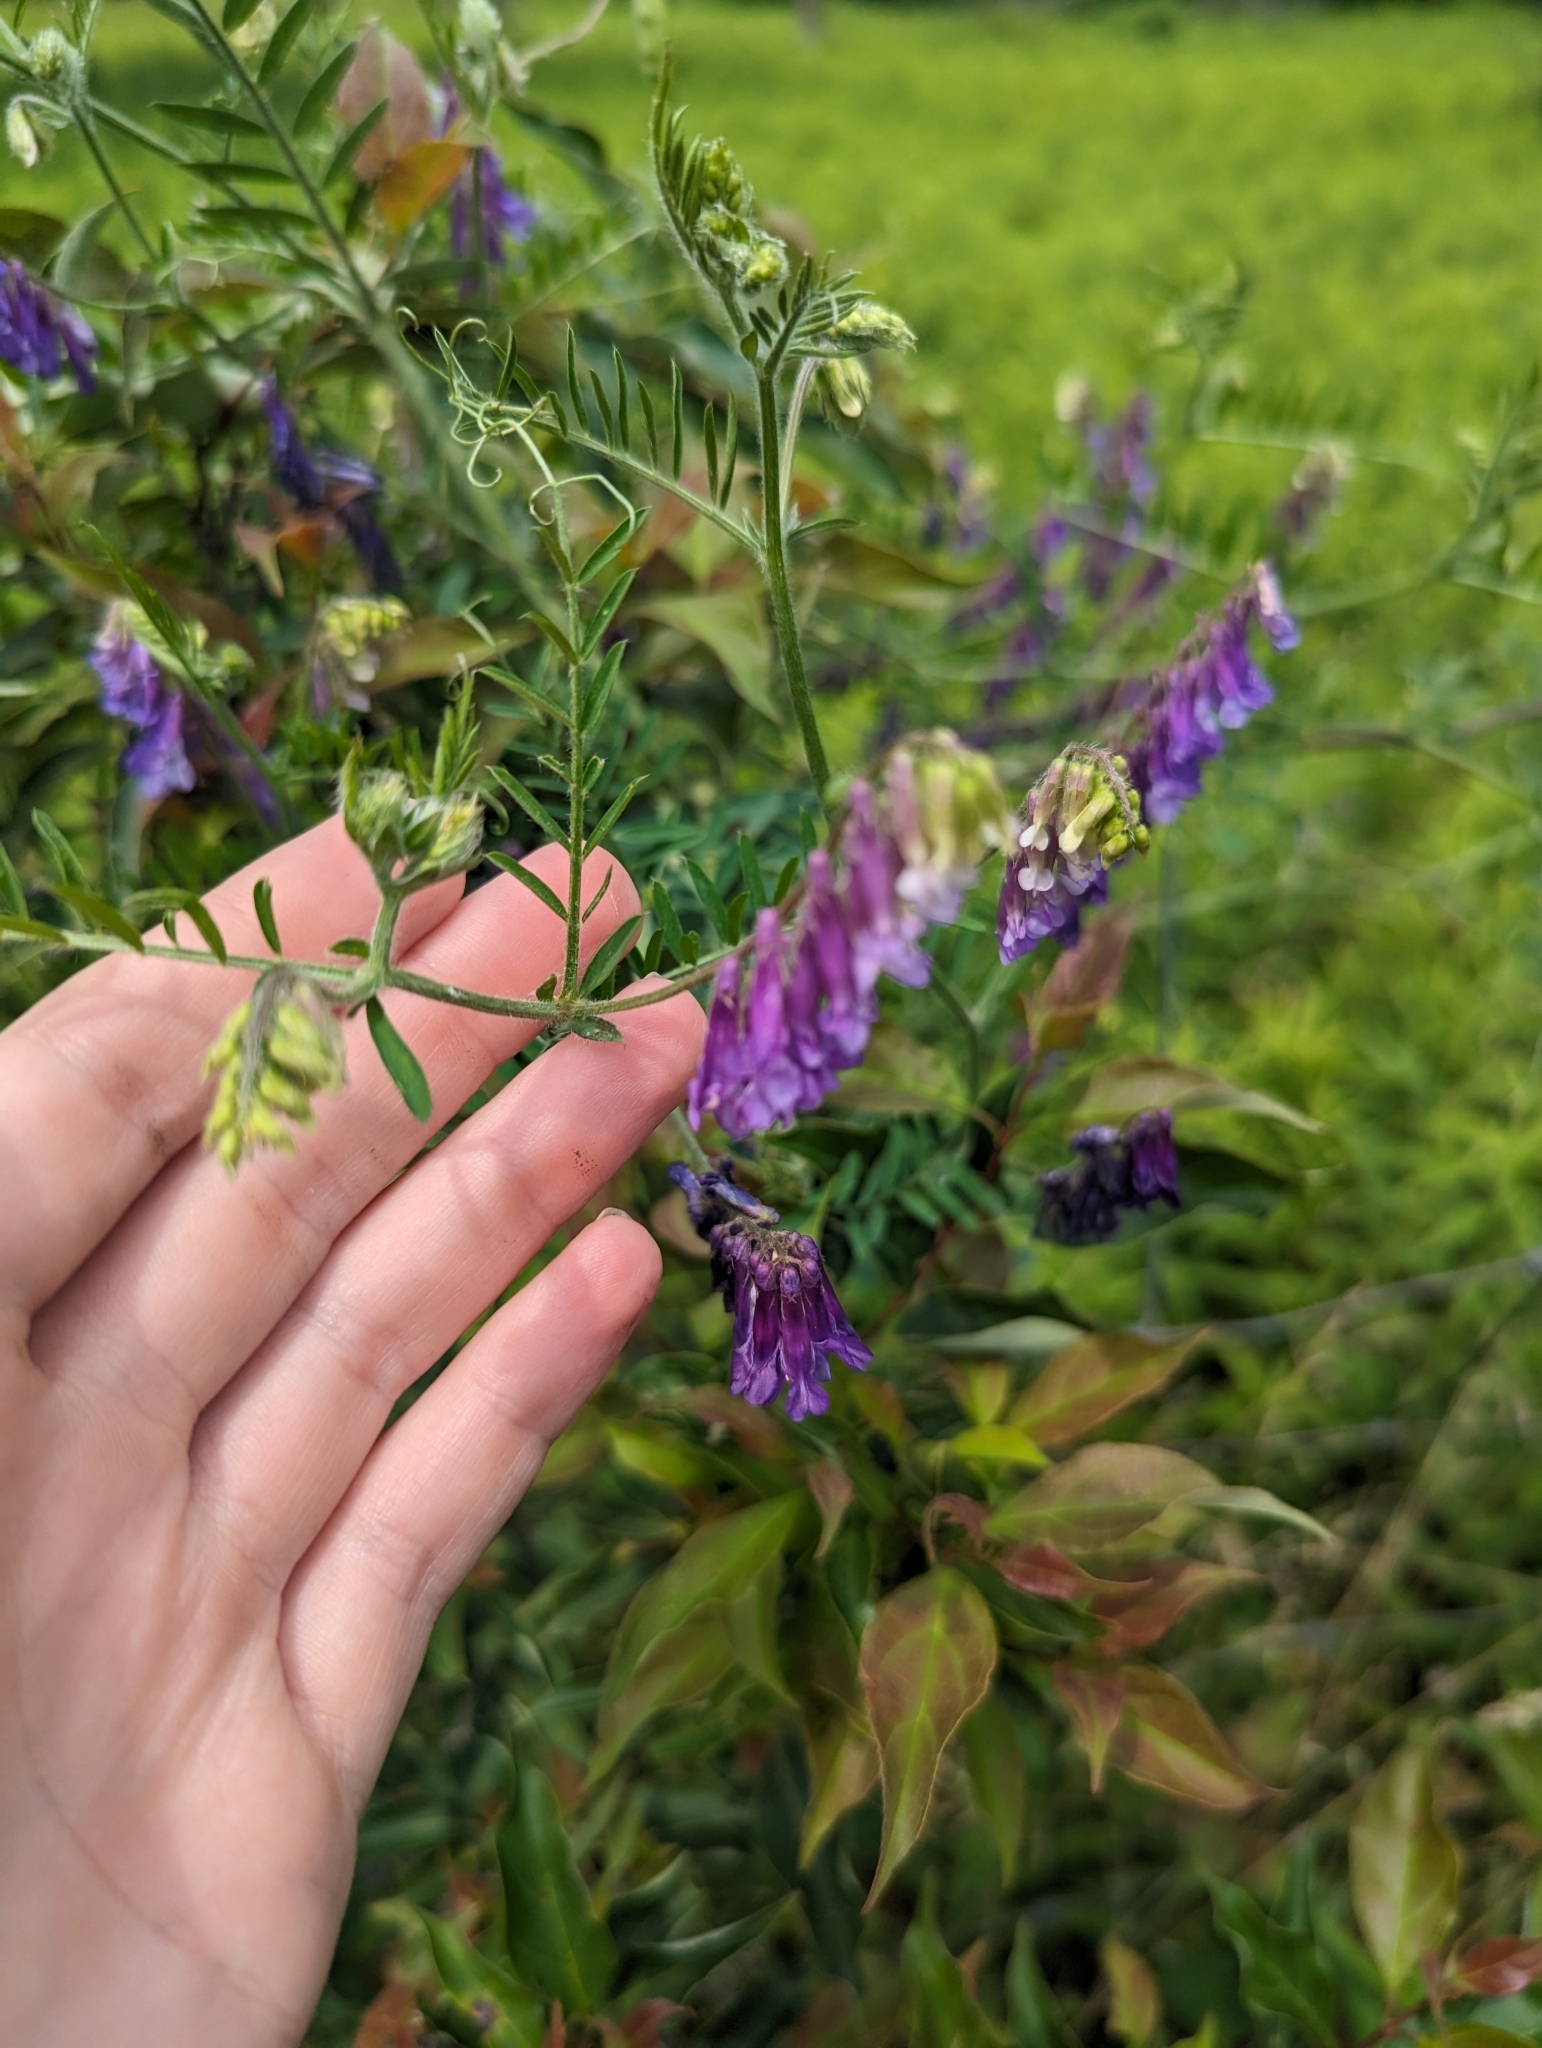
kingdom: Plantae
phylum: Tracheophyta
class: Magnoliopsida
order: Fabales
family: Fabaceae
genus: Vicia
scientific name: Vicia villosa
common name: Fodder vetch
